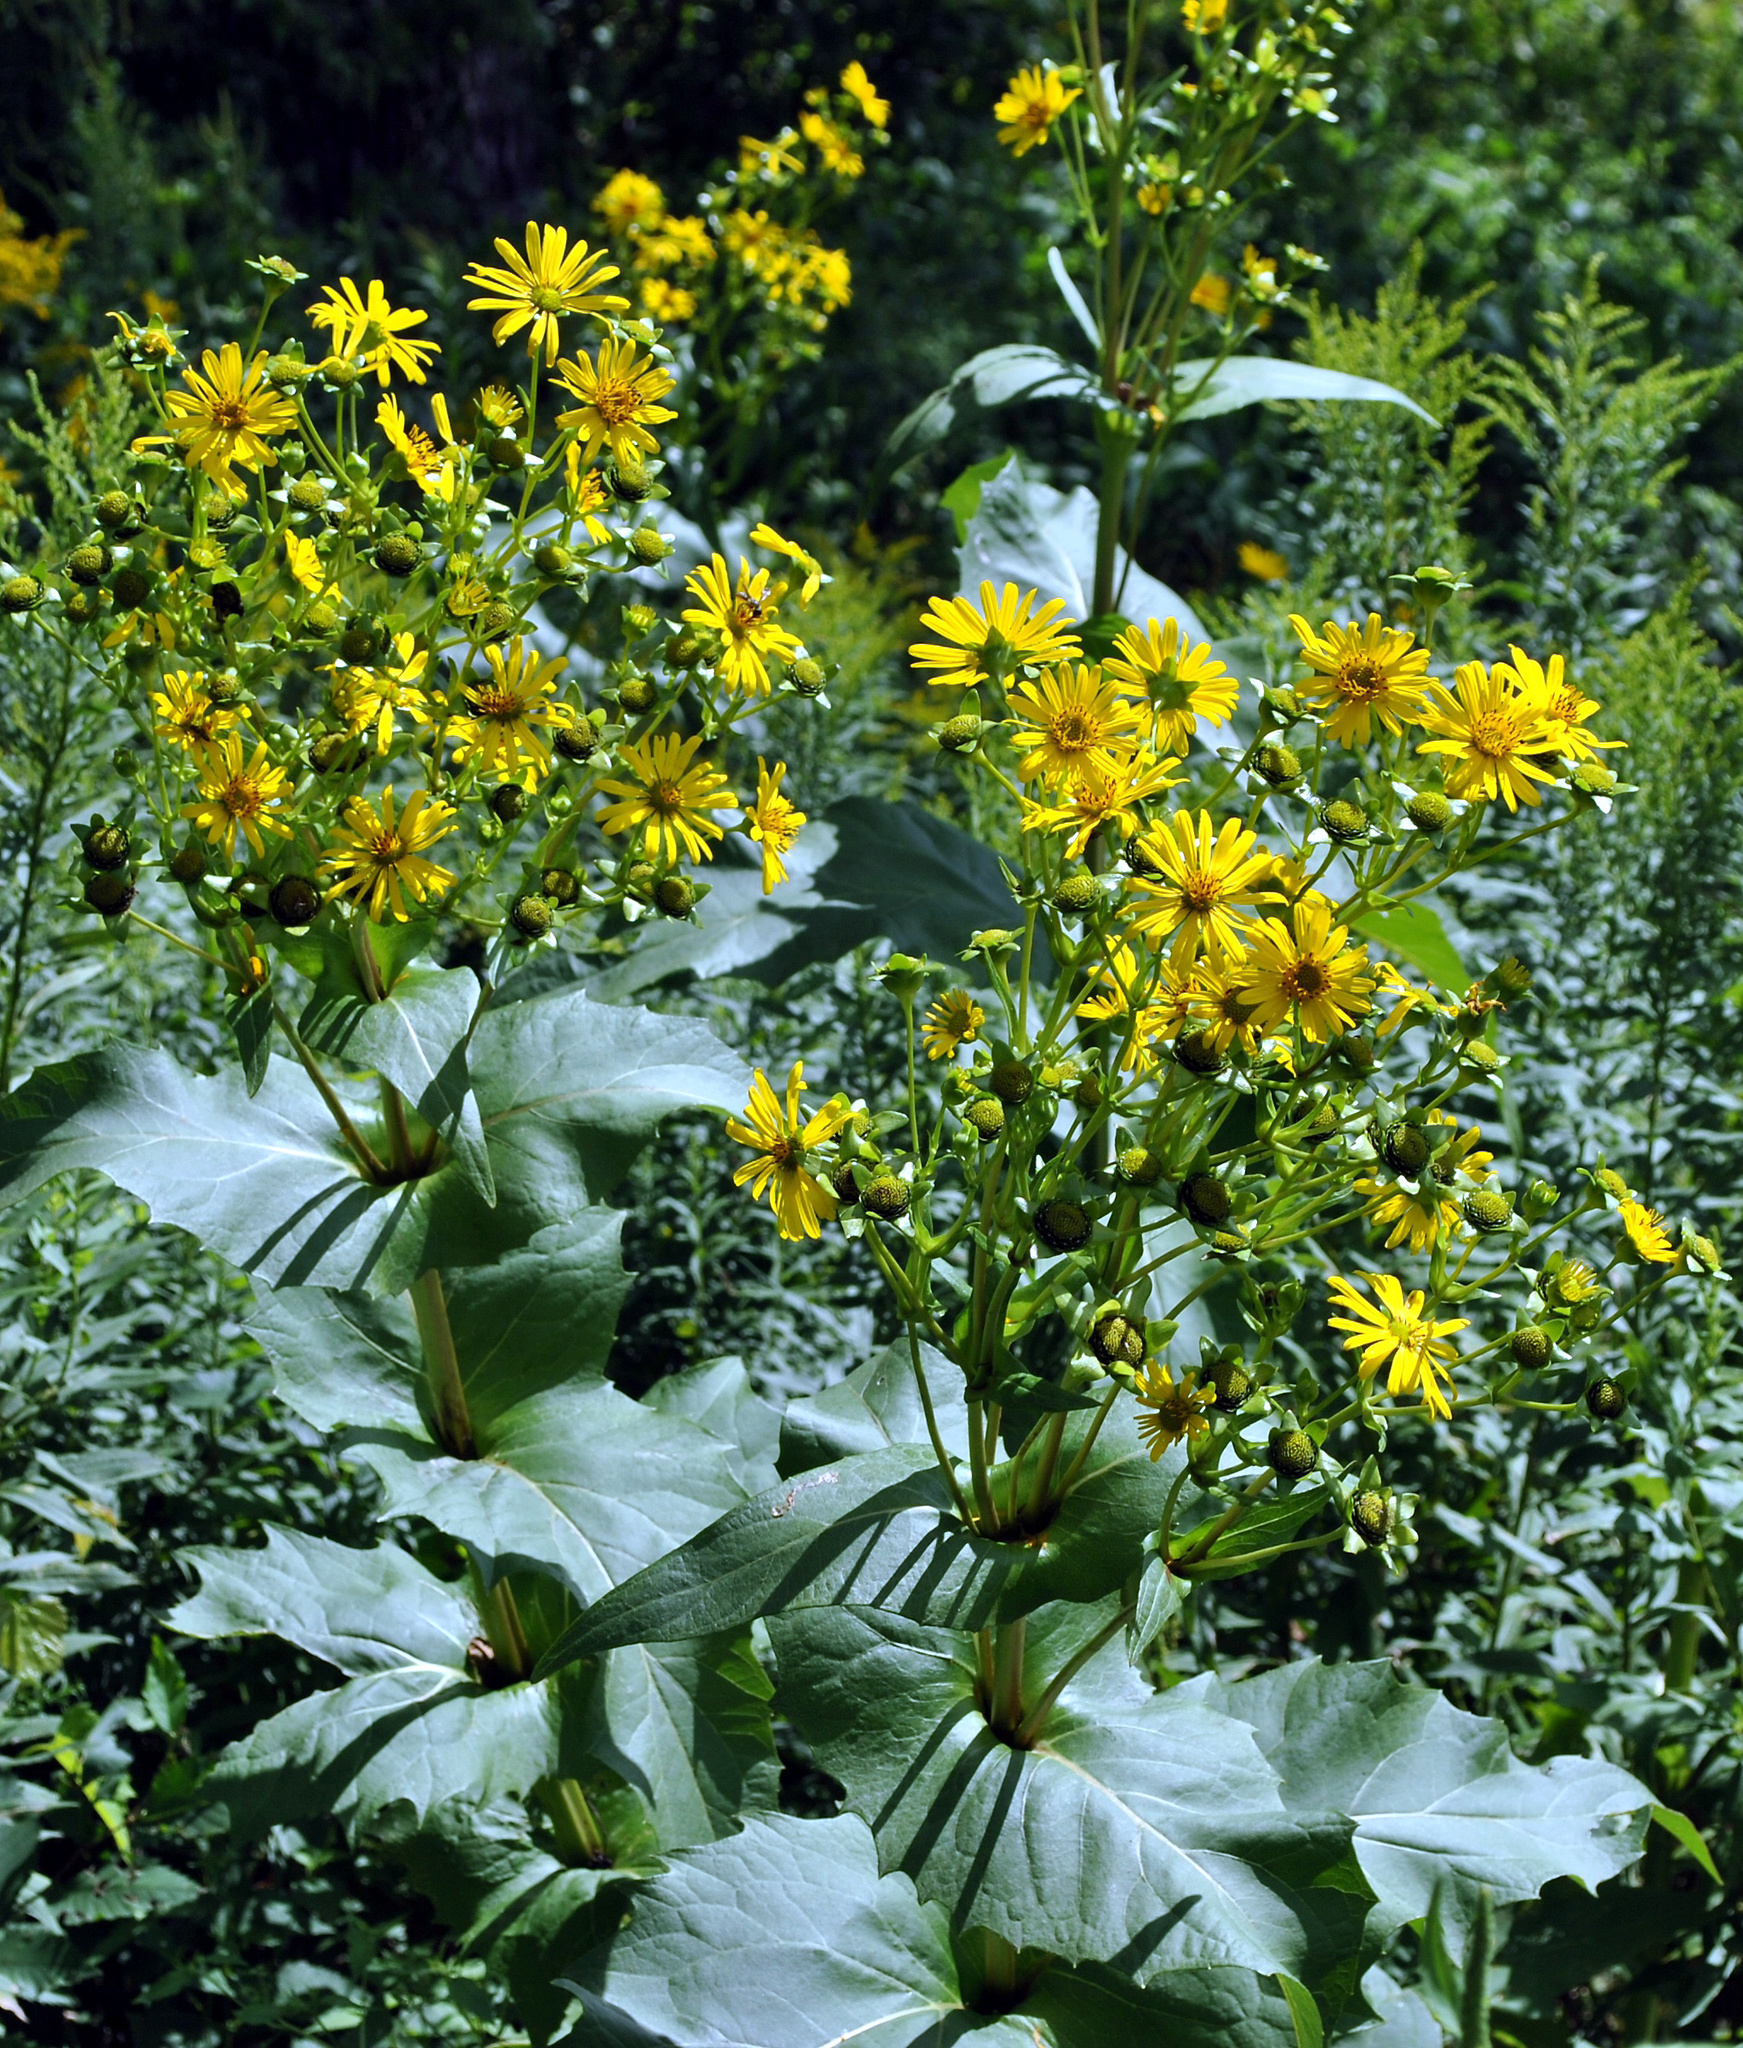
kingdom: Plantae
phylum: Tracheophyta
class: Magnoliopsida
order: Asterales
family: Asteraceae
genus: Silphium
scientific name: Silphium perfoliatum
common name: Cup-plant
